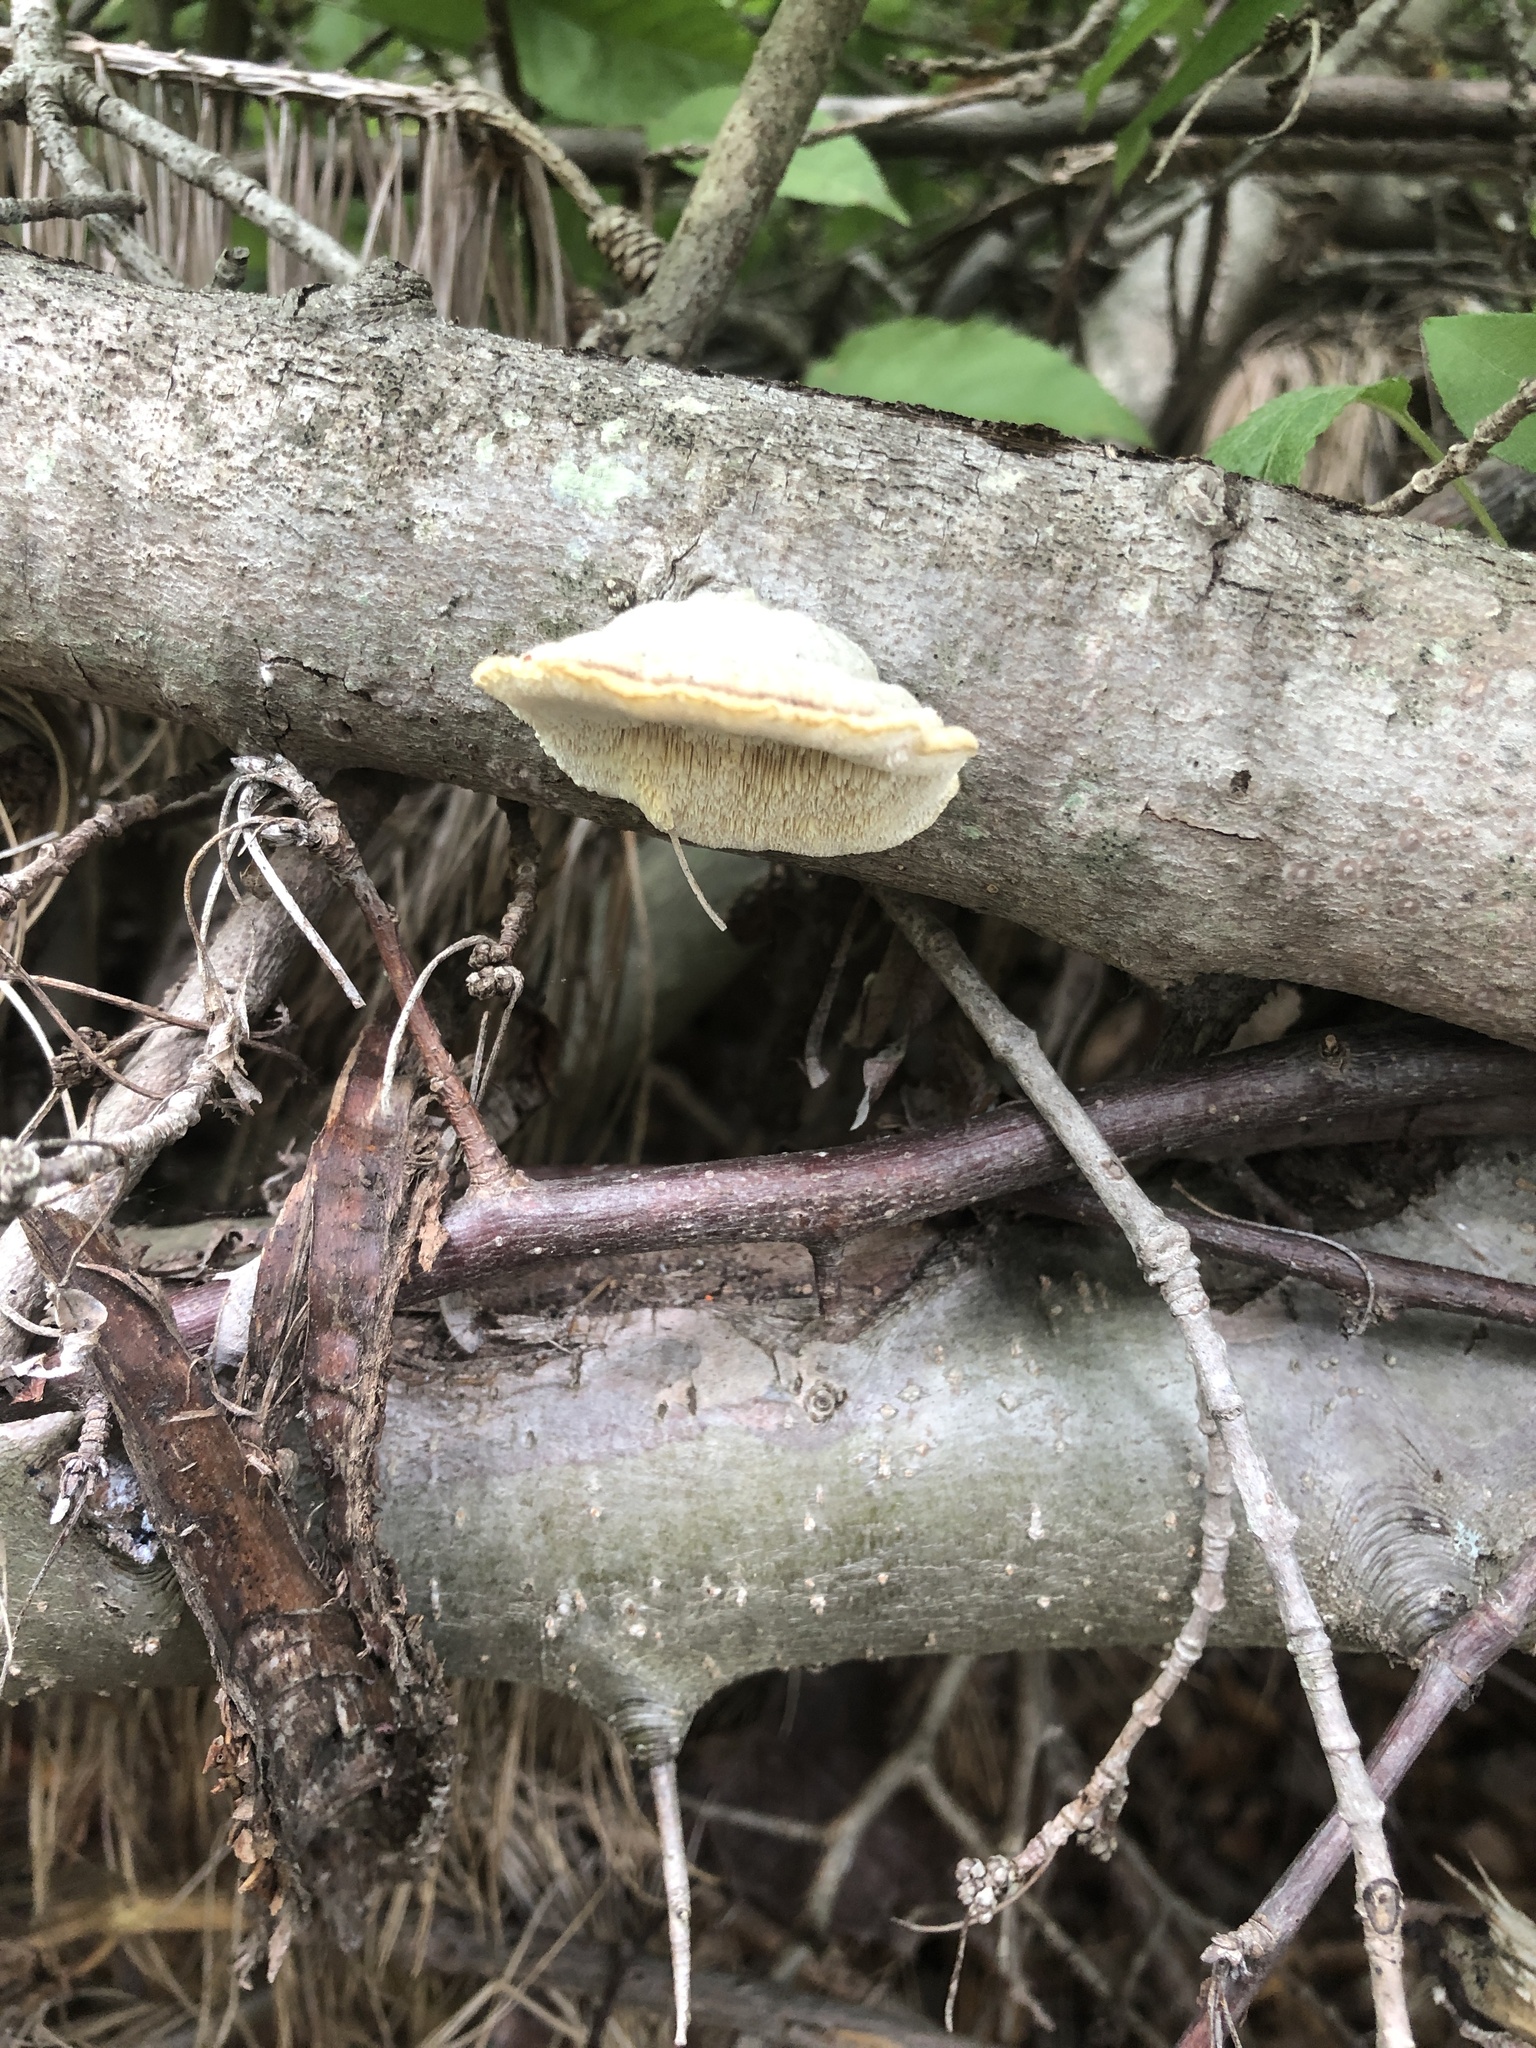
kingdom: Fungi
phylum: Basidiomycota
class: Agaricomycetes
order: Polyporales
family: Polyporaceae
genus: Trametes
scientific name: Trametes hirsuta
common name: Hairy bracket
